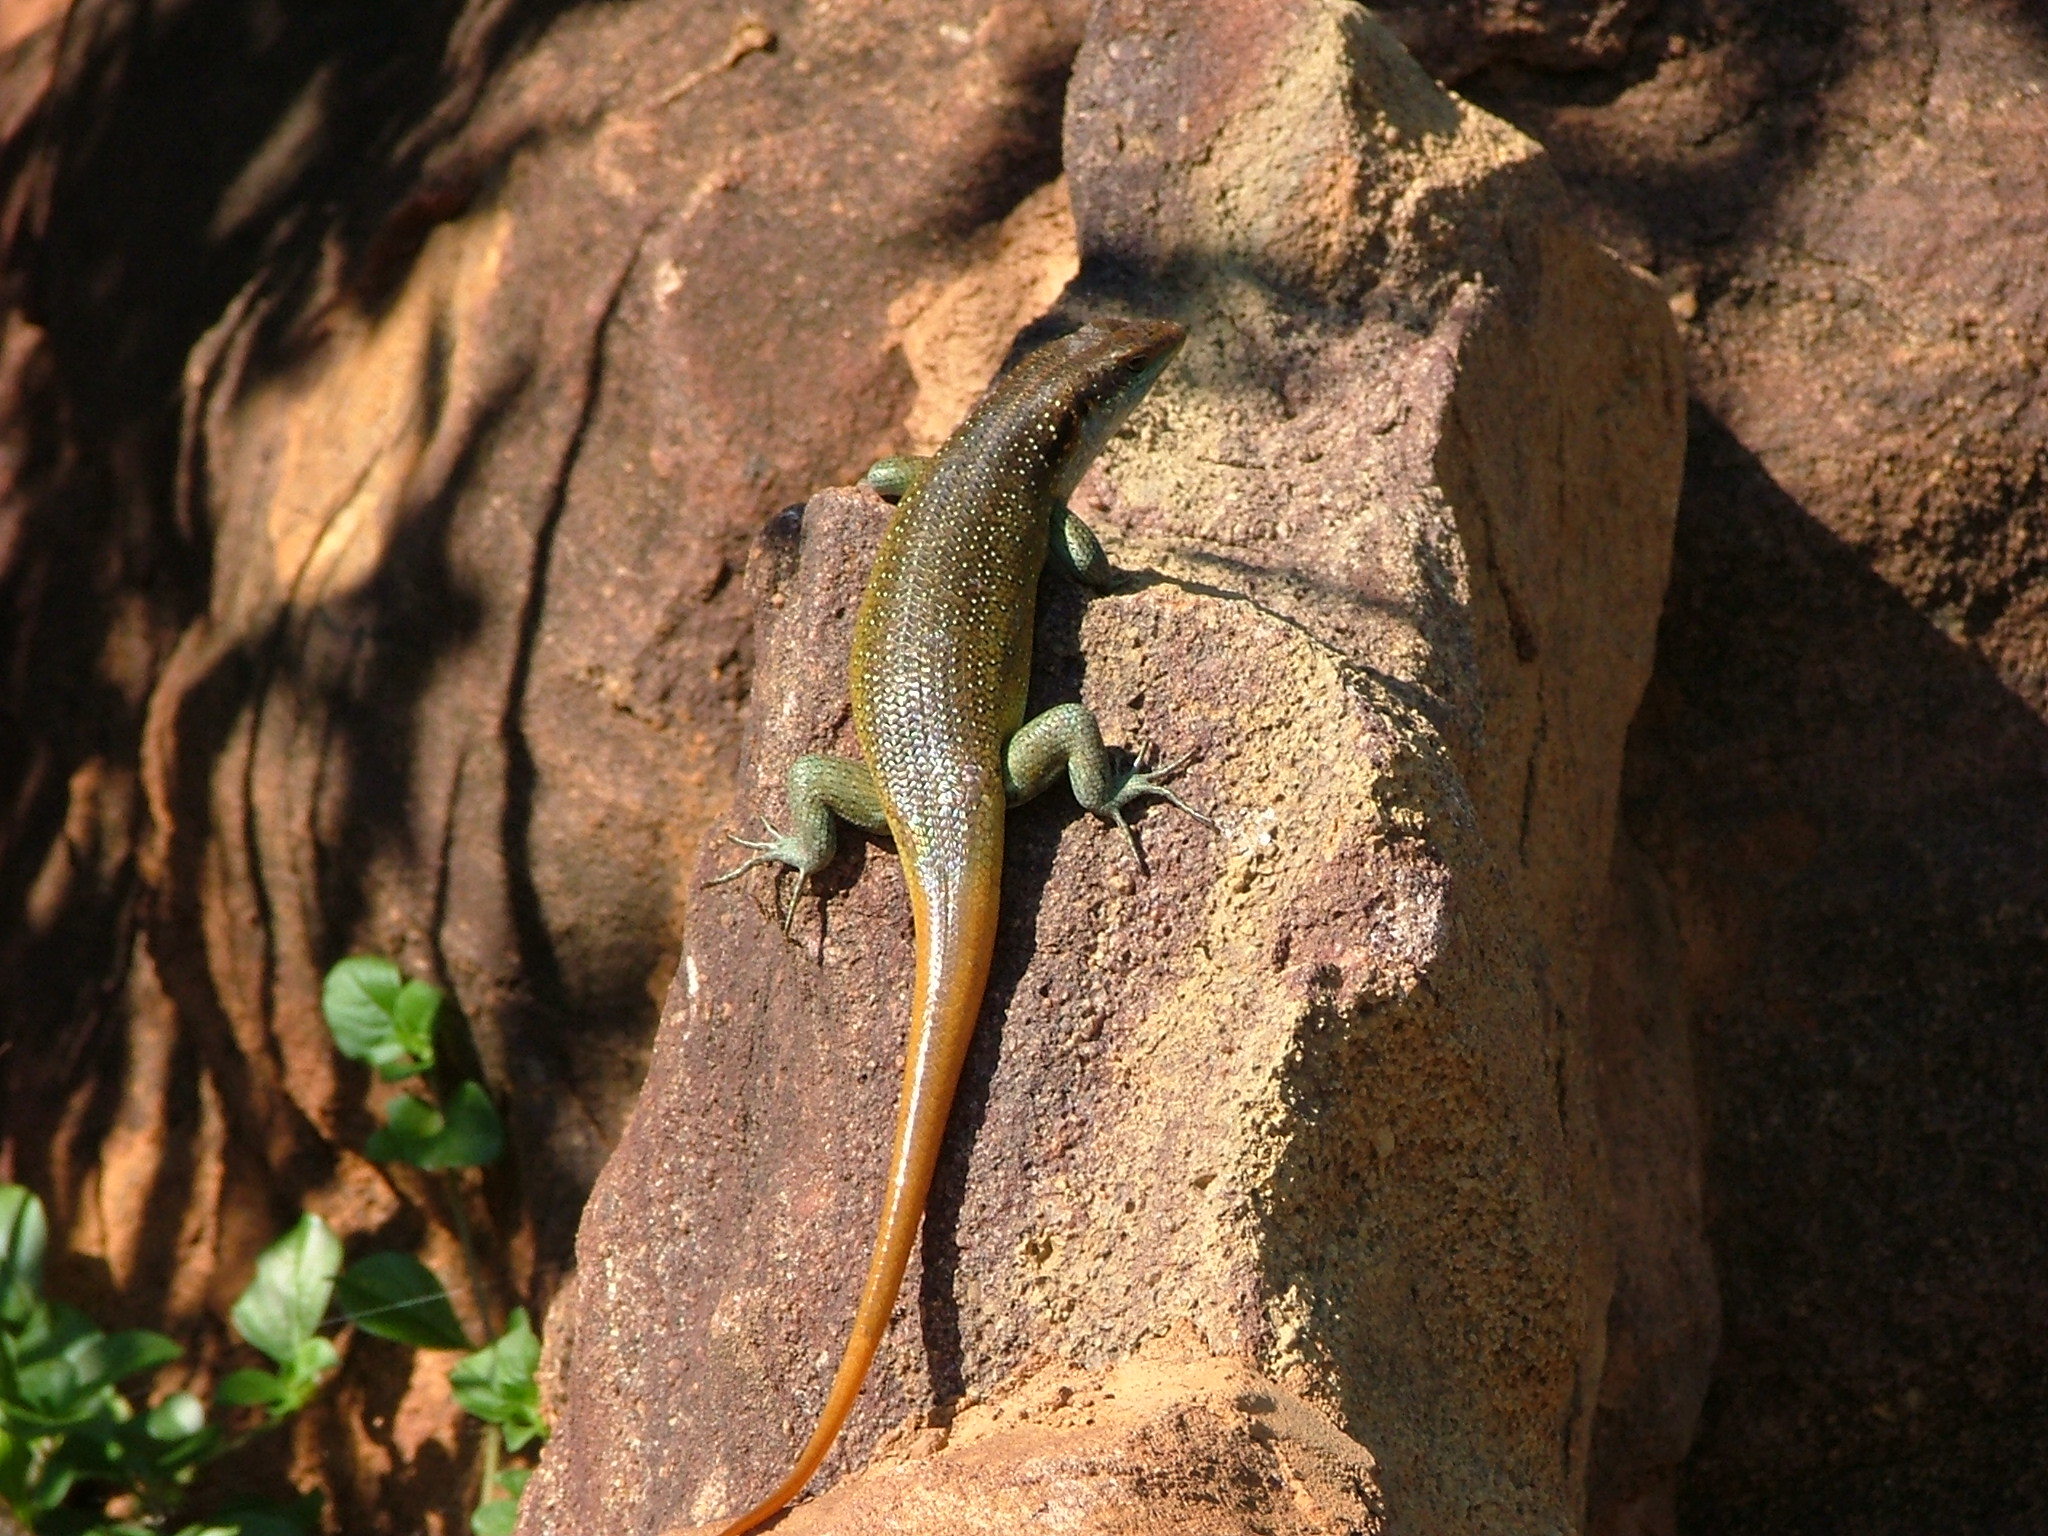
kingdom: Animalia
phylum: Chordata
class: Squamata
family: Scincidae
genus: Trachylepis
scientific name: Trachylepis margaritifera
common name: Rainbow skink
